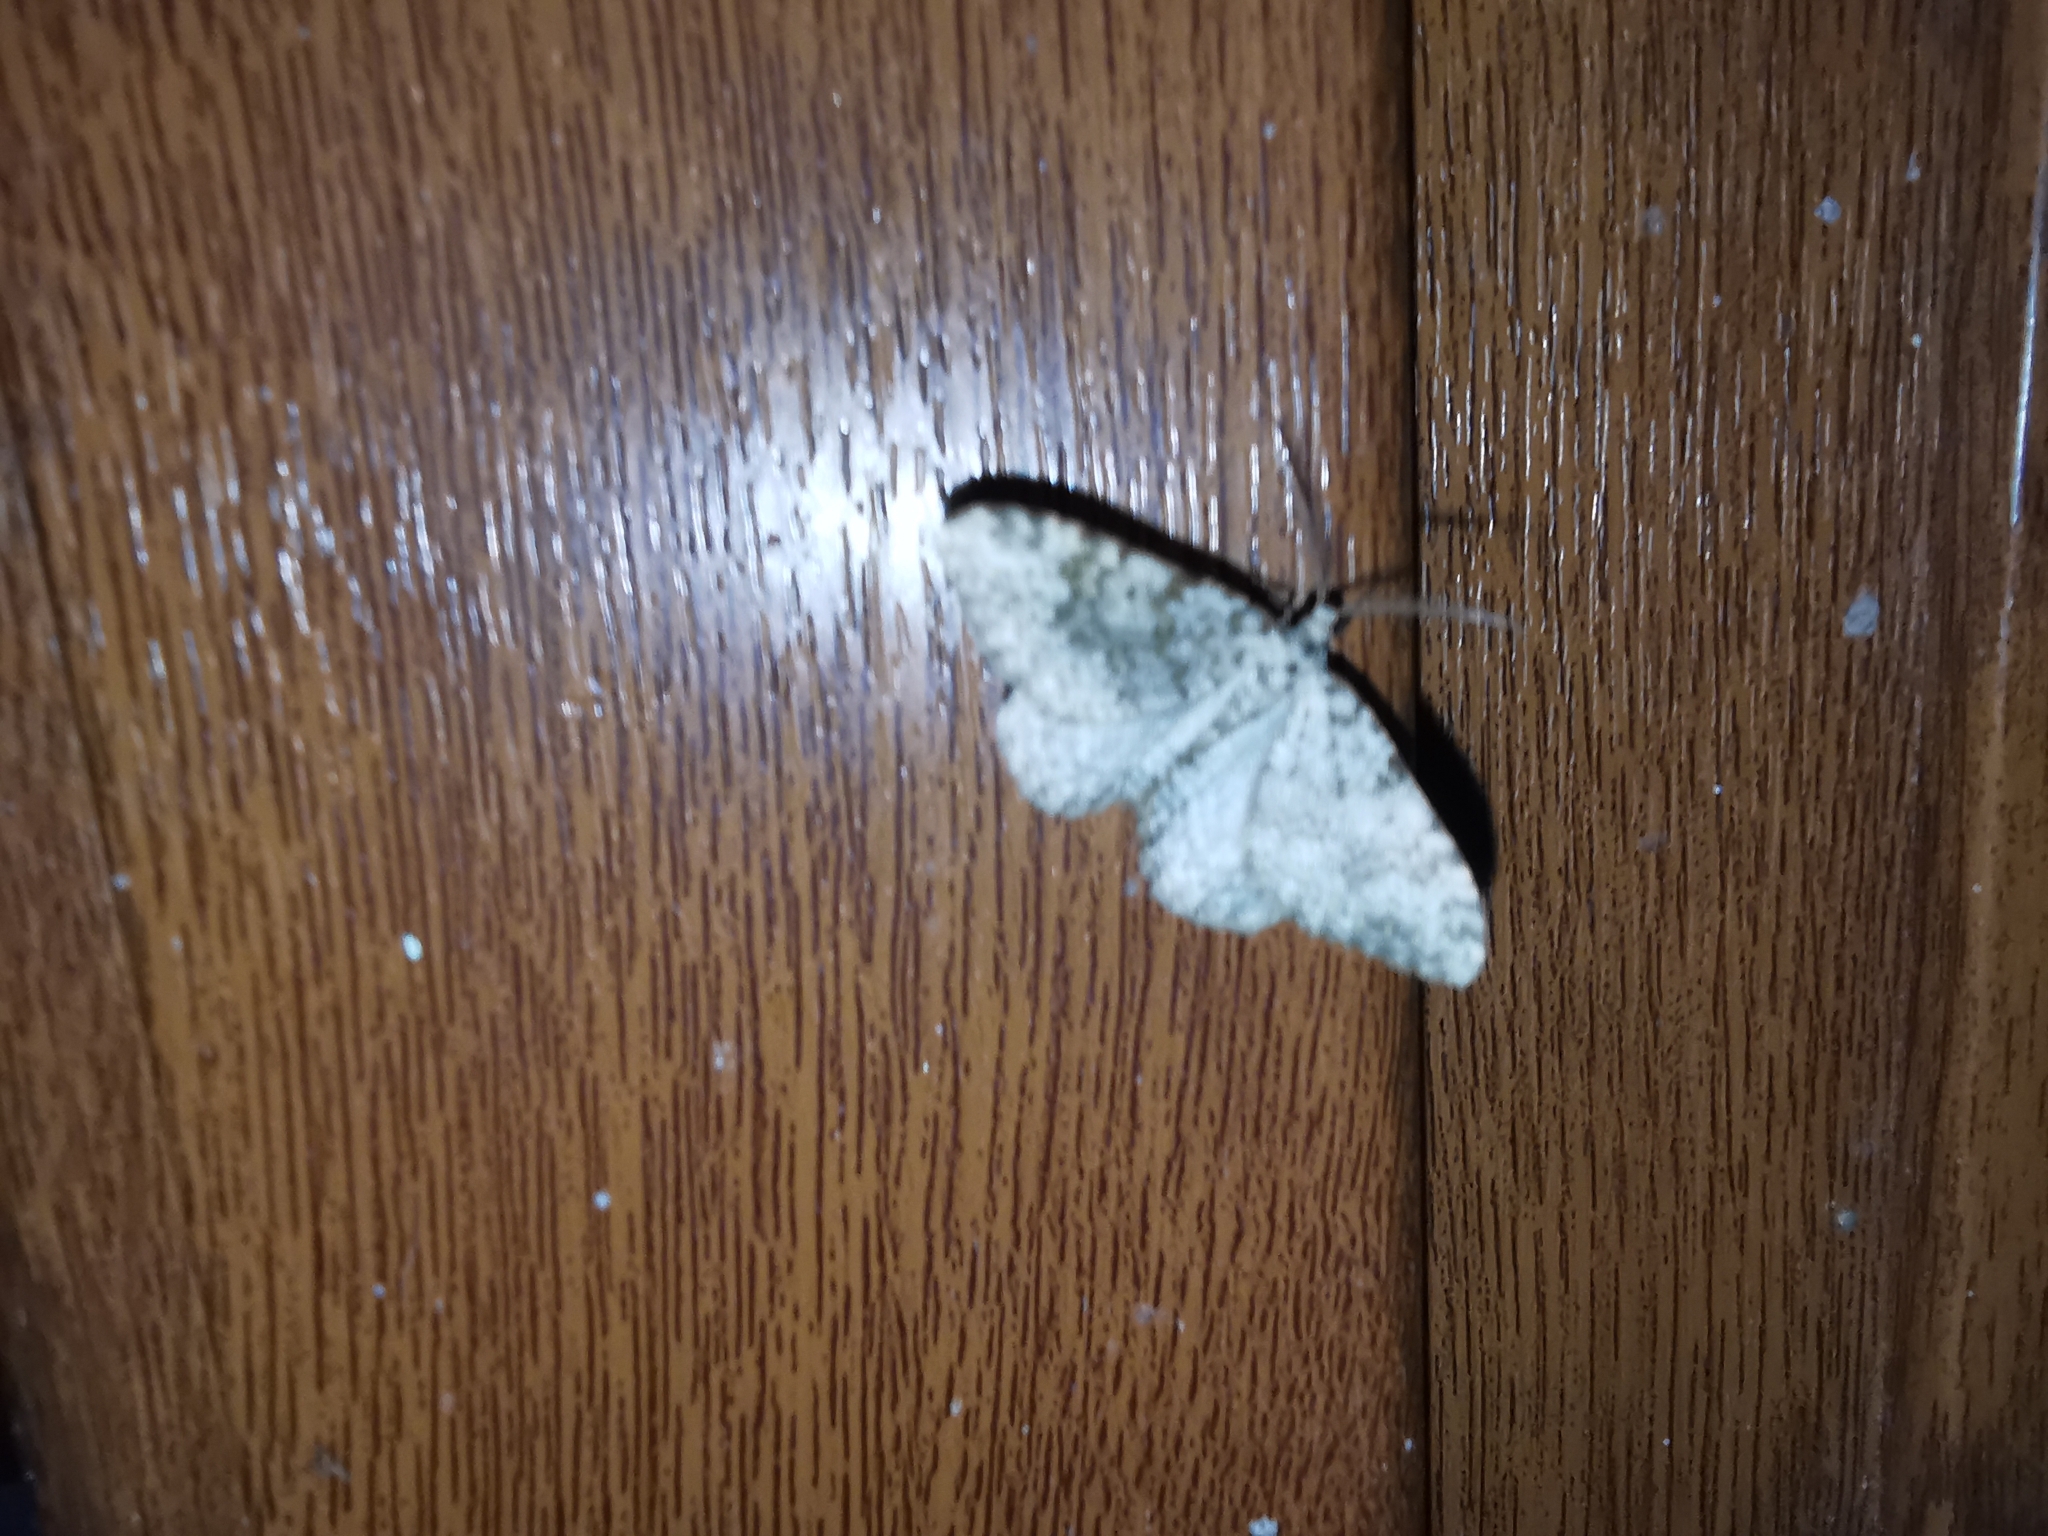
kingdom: Animalia
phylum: Arthropoda
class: Insecta
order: Lepidoptera
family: Geometridae
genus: Nebula
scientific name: Nebula salicata
